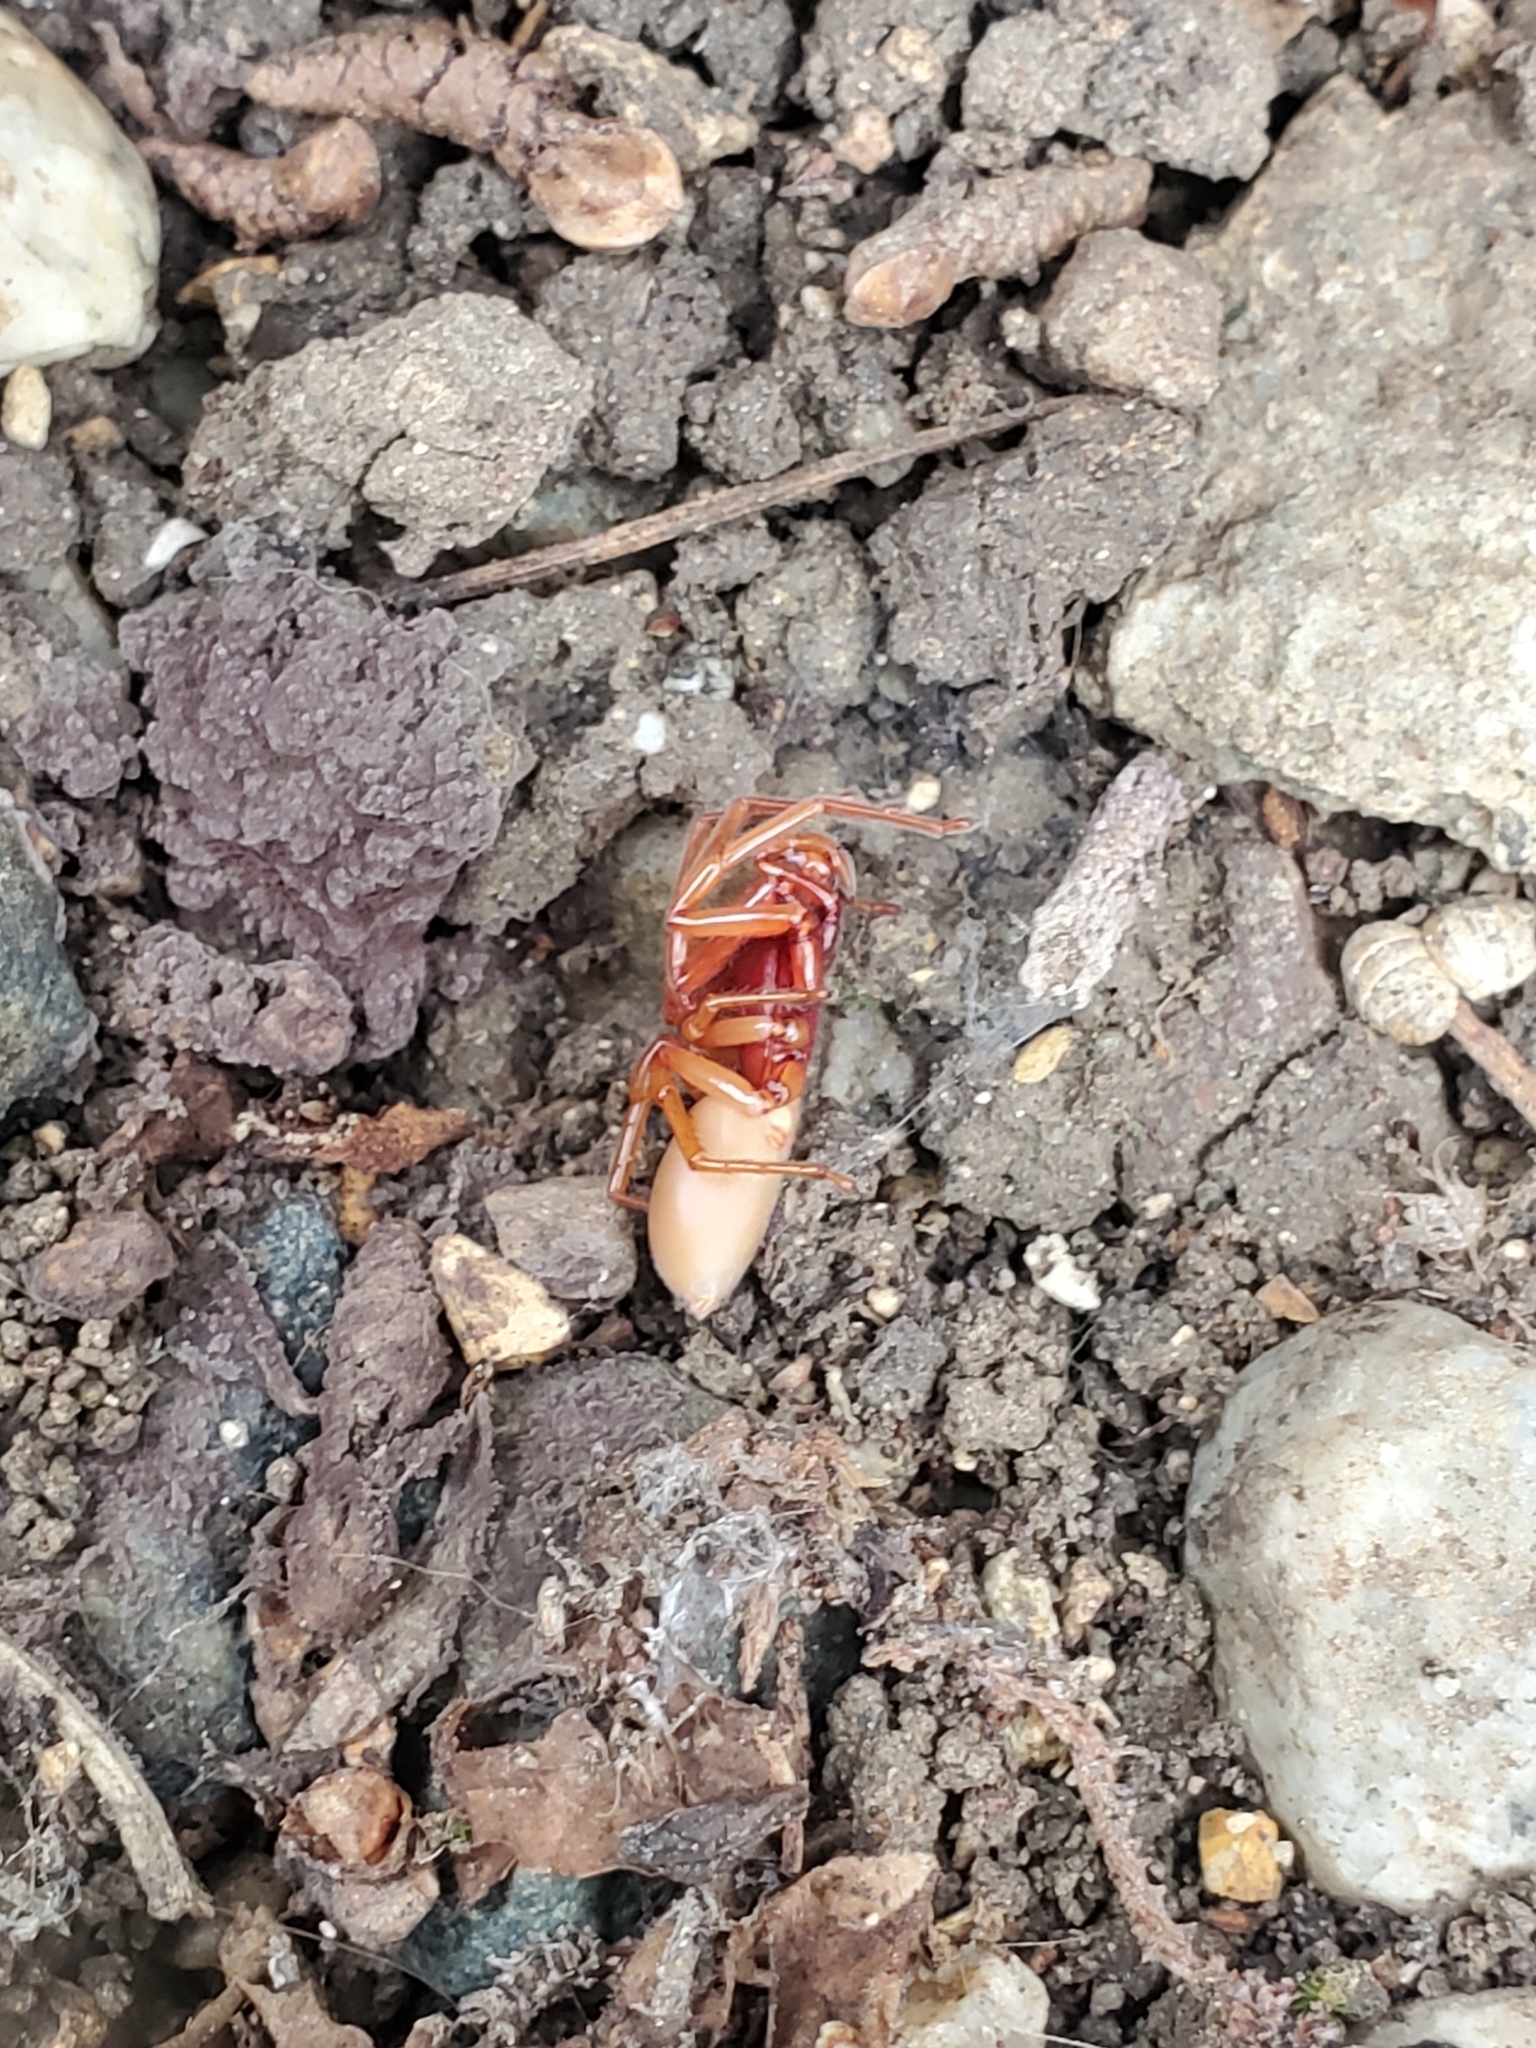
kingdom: Animalia
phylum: Arthropoda
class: Arachnida
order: Araneae
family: Dysderidae
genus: Dysdera
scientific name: Dysdera crocata
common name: Woodlouse spider
